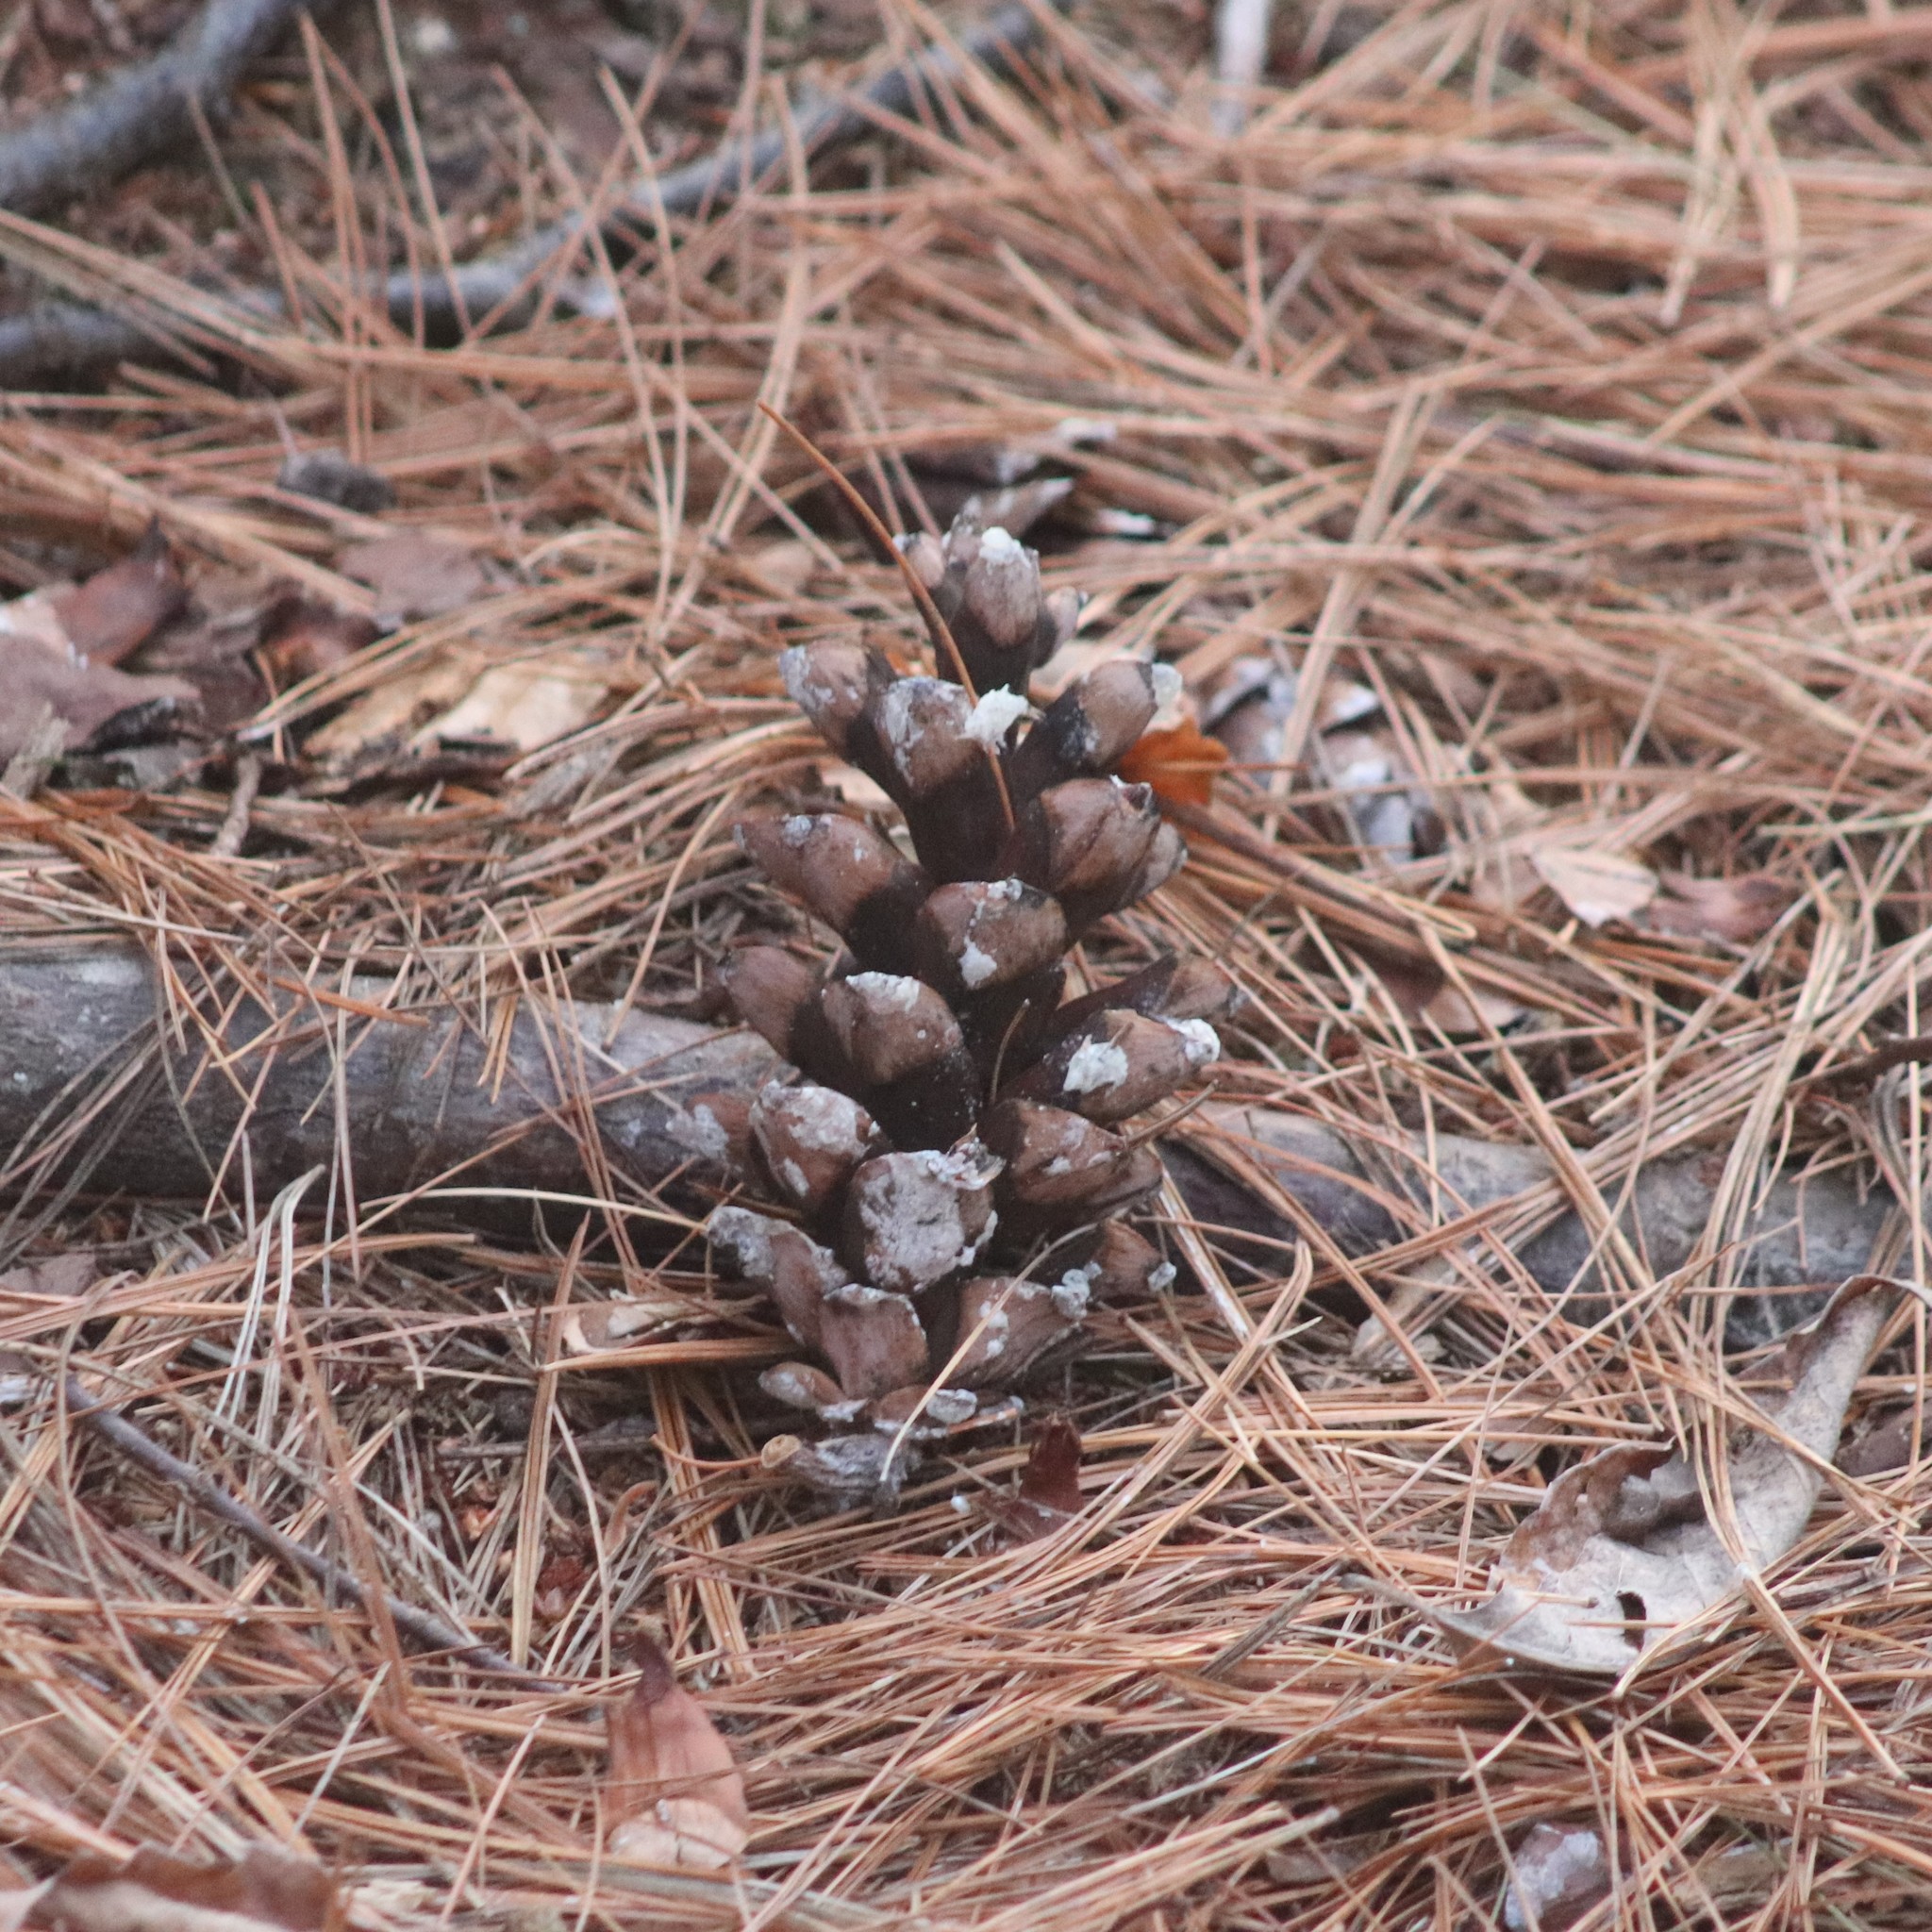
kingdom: Plantae
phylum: Tracheophyta
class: Pinopsida
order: Pinales
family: Pinaceae
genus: Pinus
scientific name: Pinus strobus
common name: Weymouth pine
